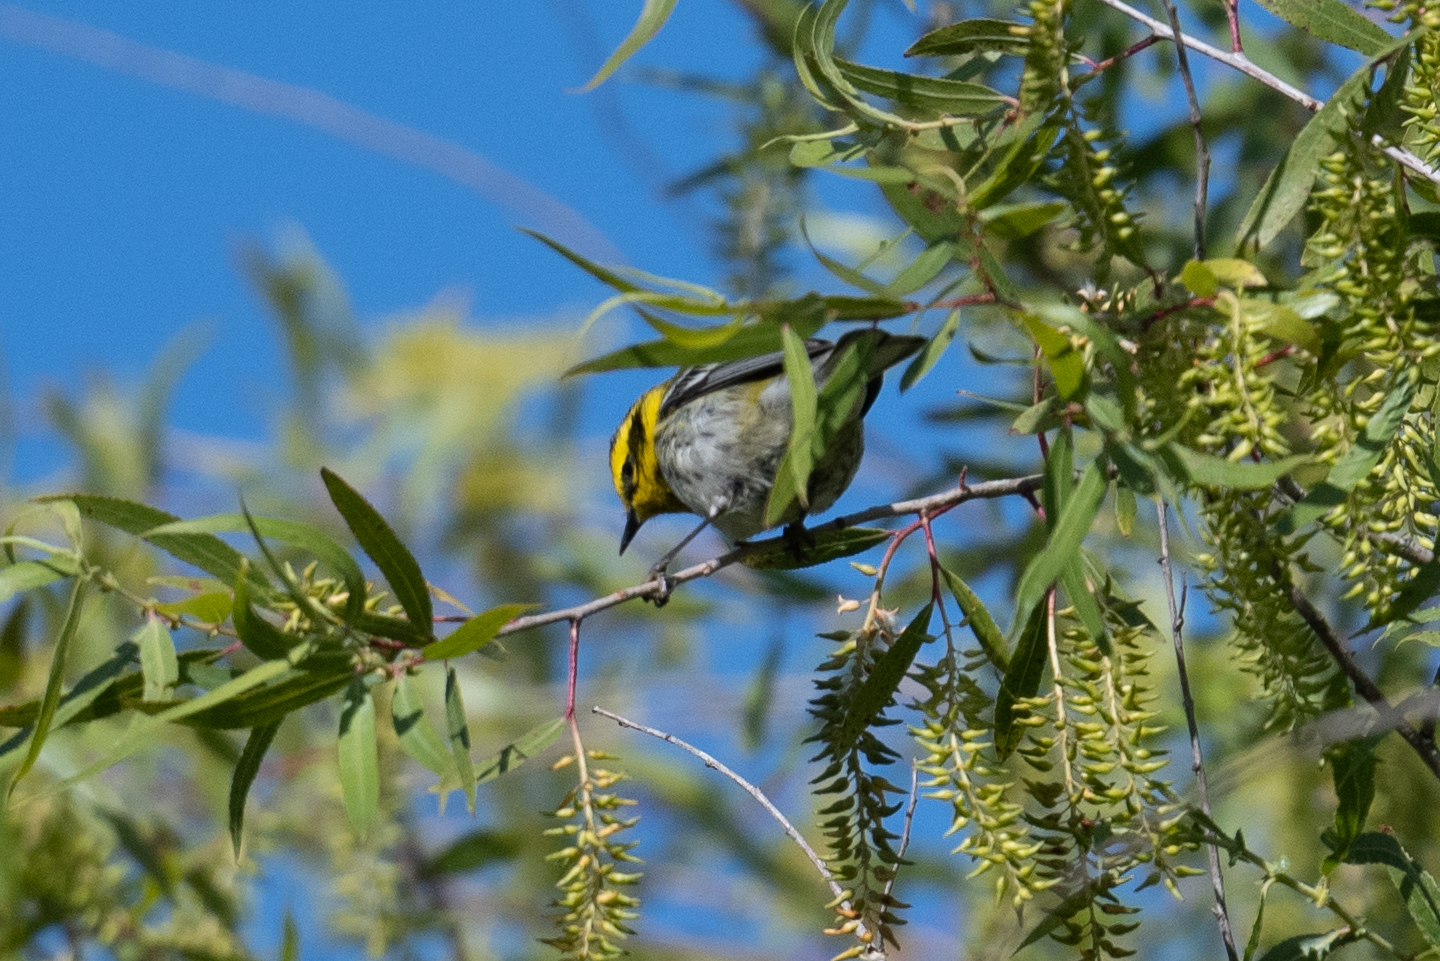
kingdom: Animalia
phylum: Chordata
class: Aves
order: Passeriformes
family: Parulidae
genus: Setophaga
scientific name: Setophaga townsendi
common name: Townsend's warbler
